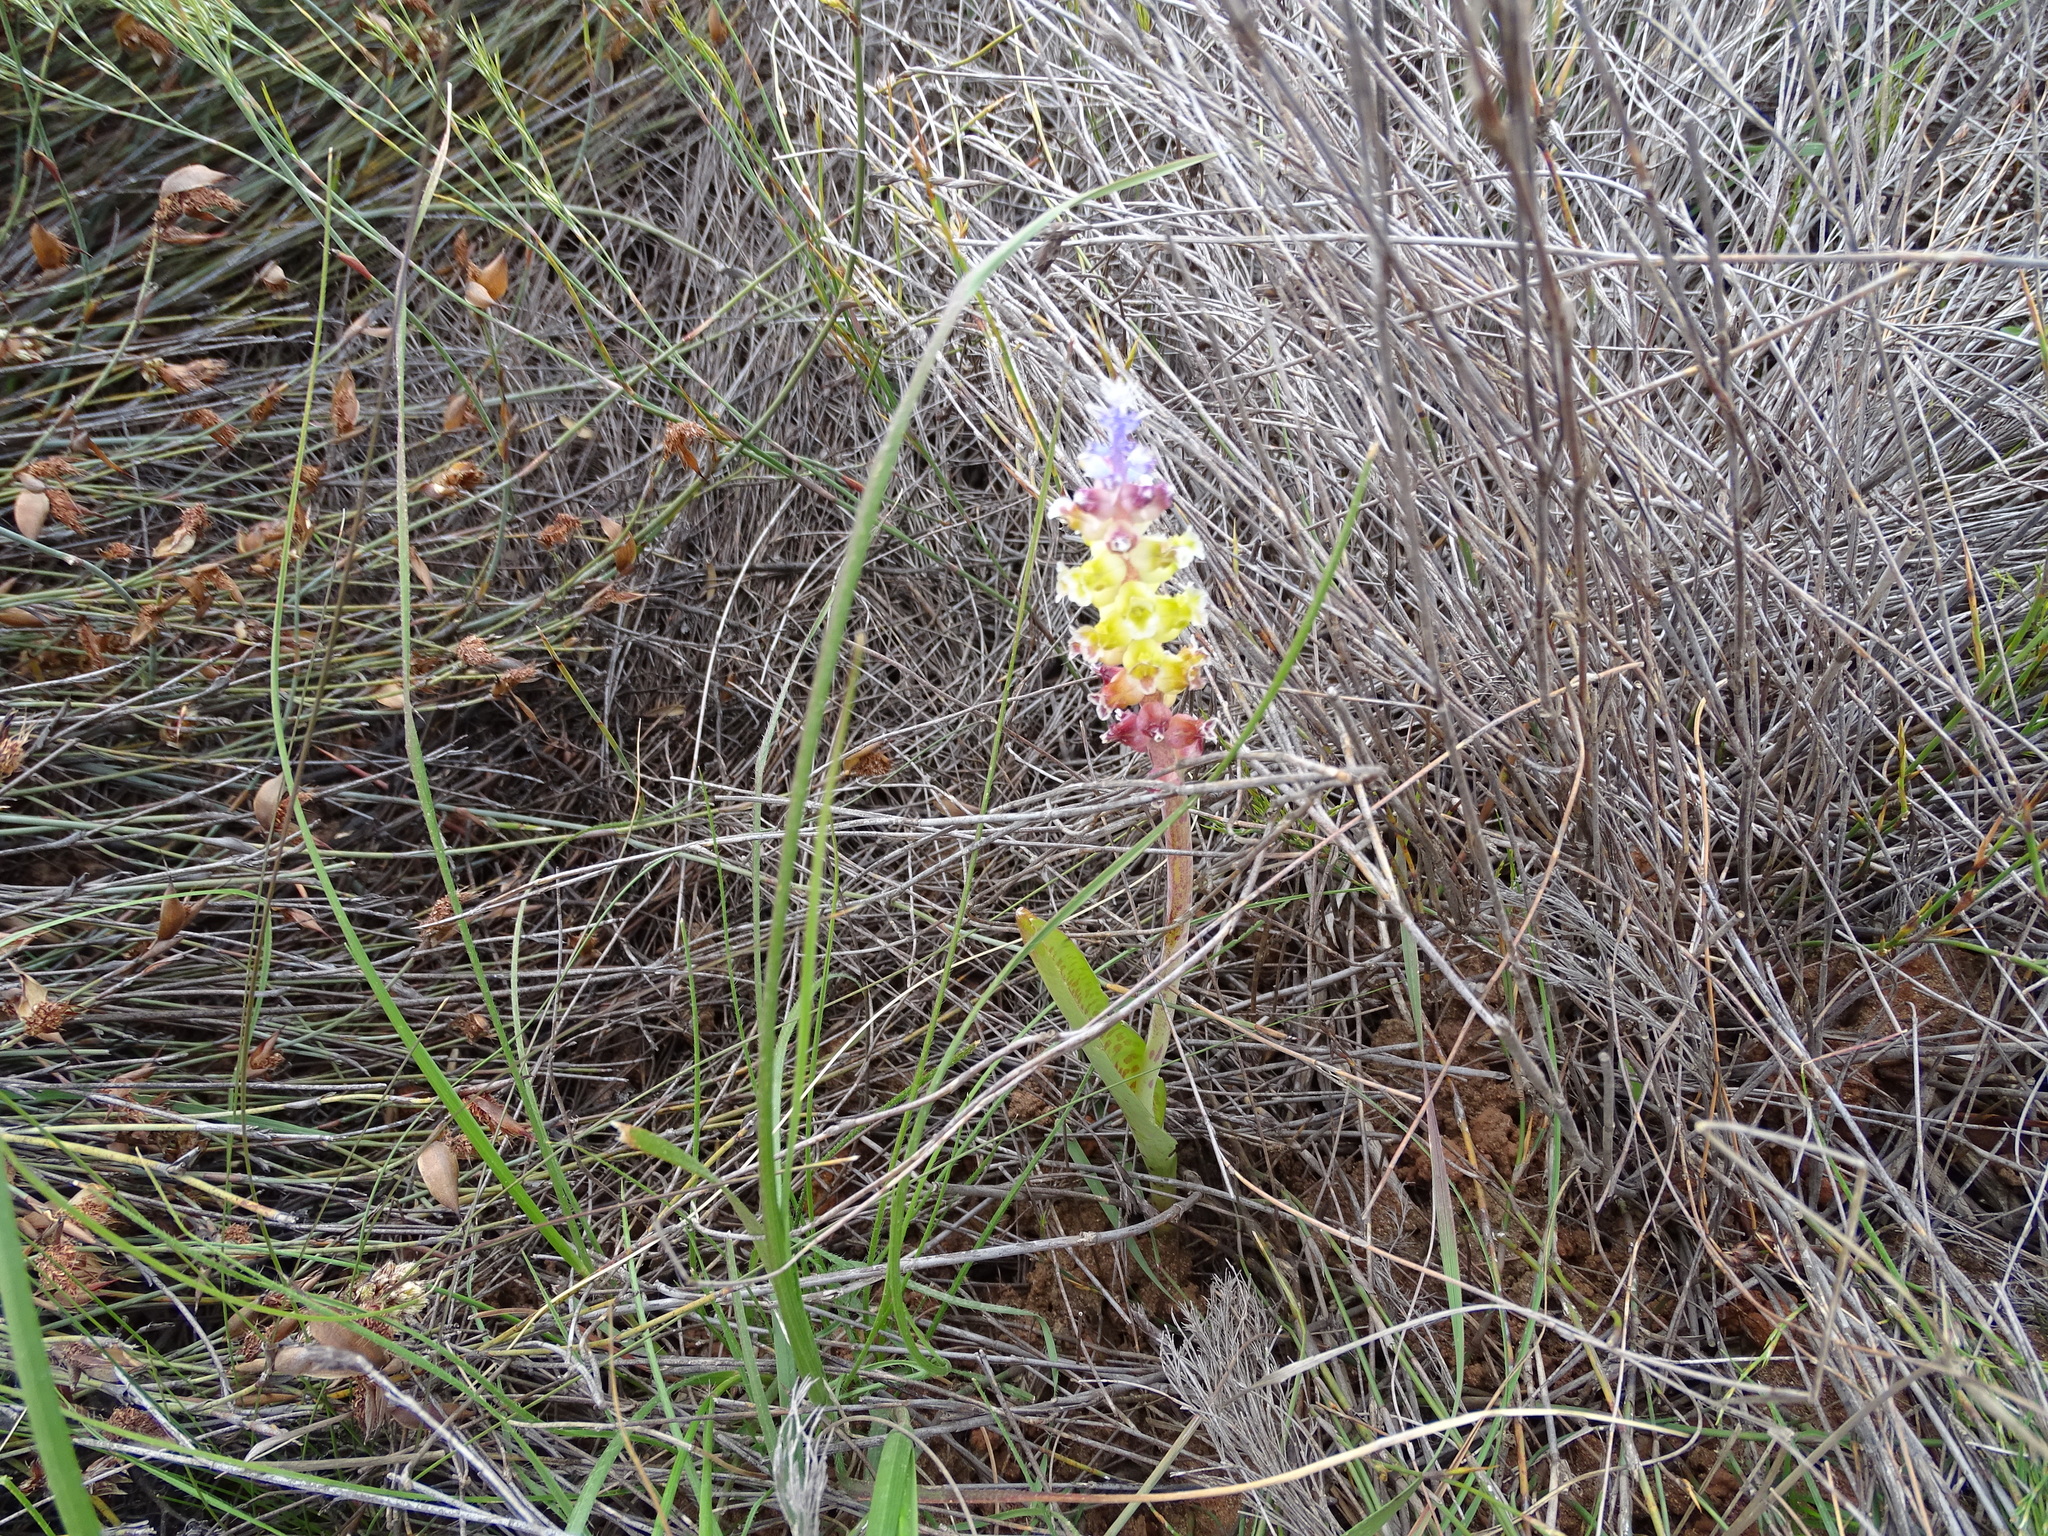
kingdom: Plantae
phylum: Tracheophyta
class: Liliopsida
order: Asparagales
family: Asparagaceae
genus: Lachenalia
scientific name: Lachenalia membranacea
